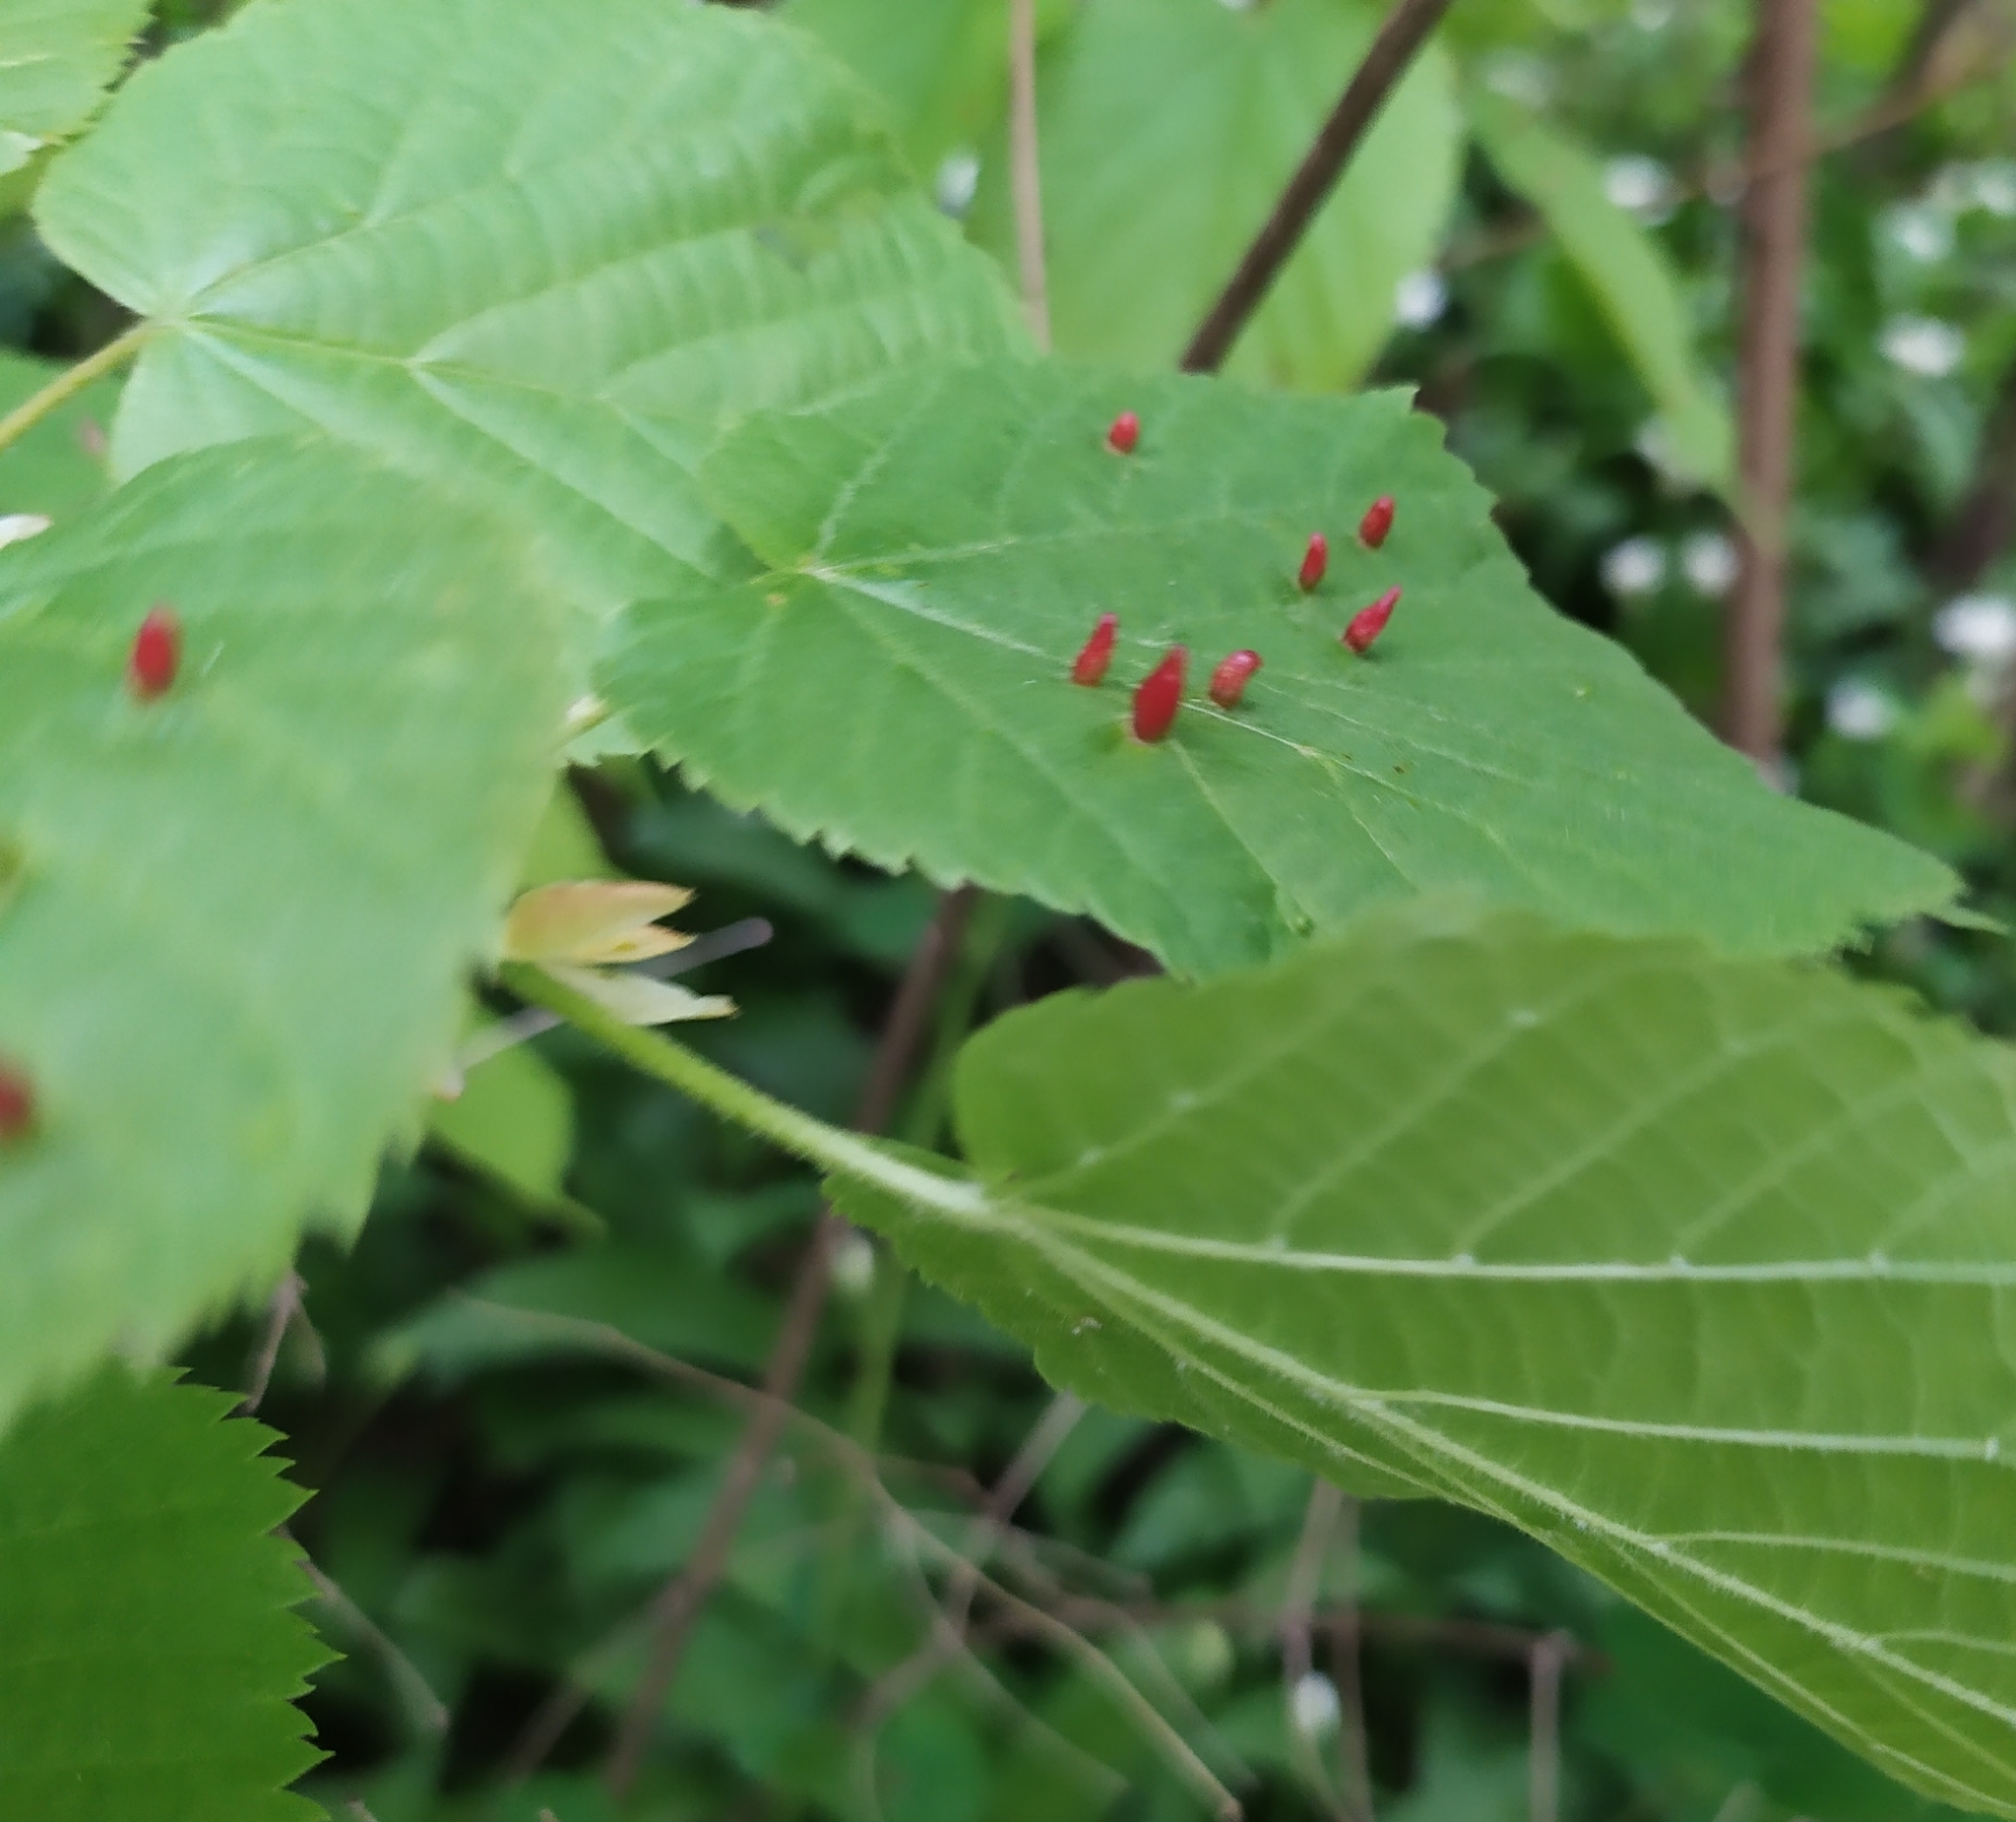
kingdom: Animalia
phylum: Arthropoda
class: Arachnida
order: Trombidiformes
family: Eriophyidae
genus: Eriophyes
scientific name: Eriophyes tiliae
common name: Red nail gall mite
